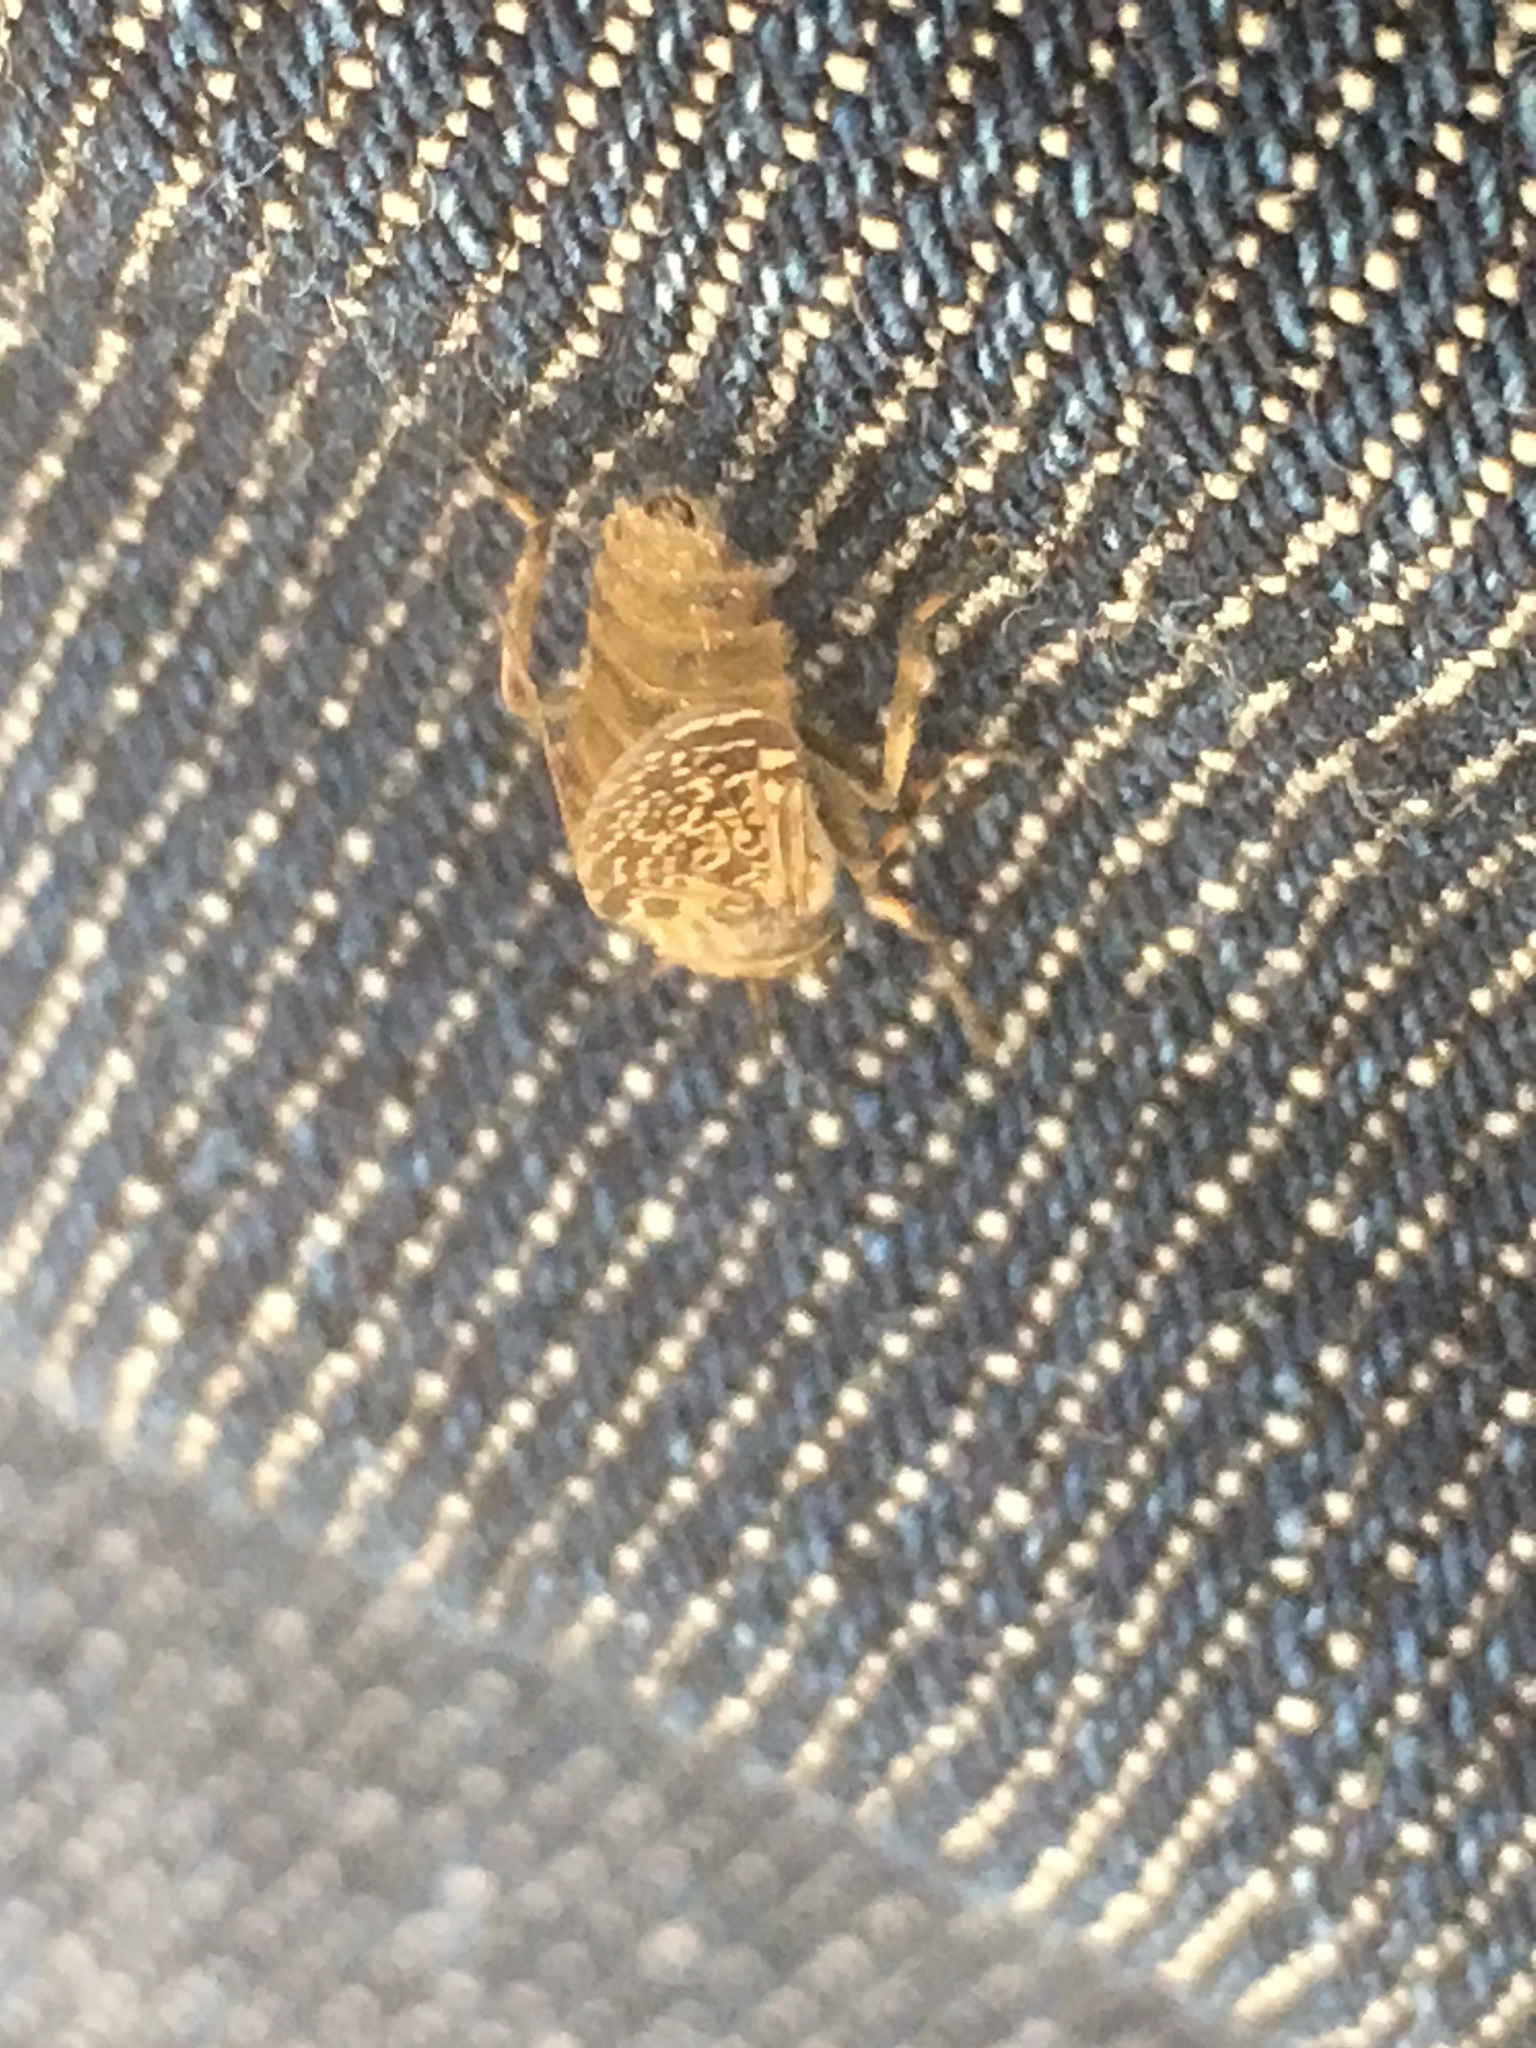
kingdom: Animalia
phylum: Arthropoda
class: Insecta
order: Diptera
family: Tabanidae
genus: Haematopota
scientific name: Haematopota pluvialis
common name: Common horse fly
